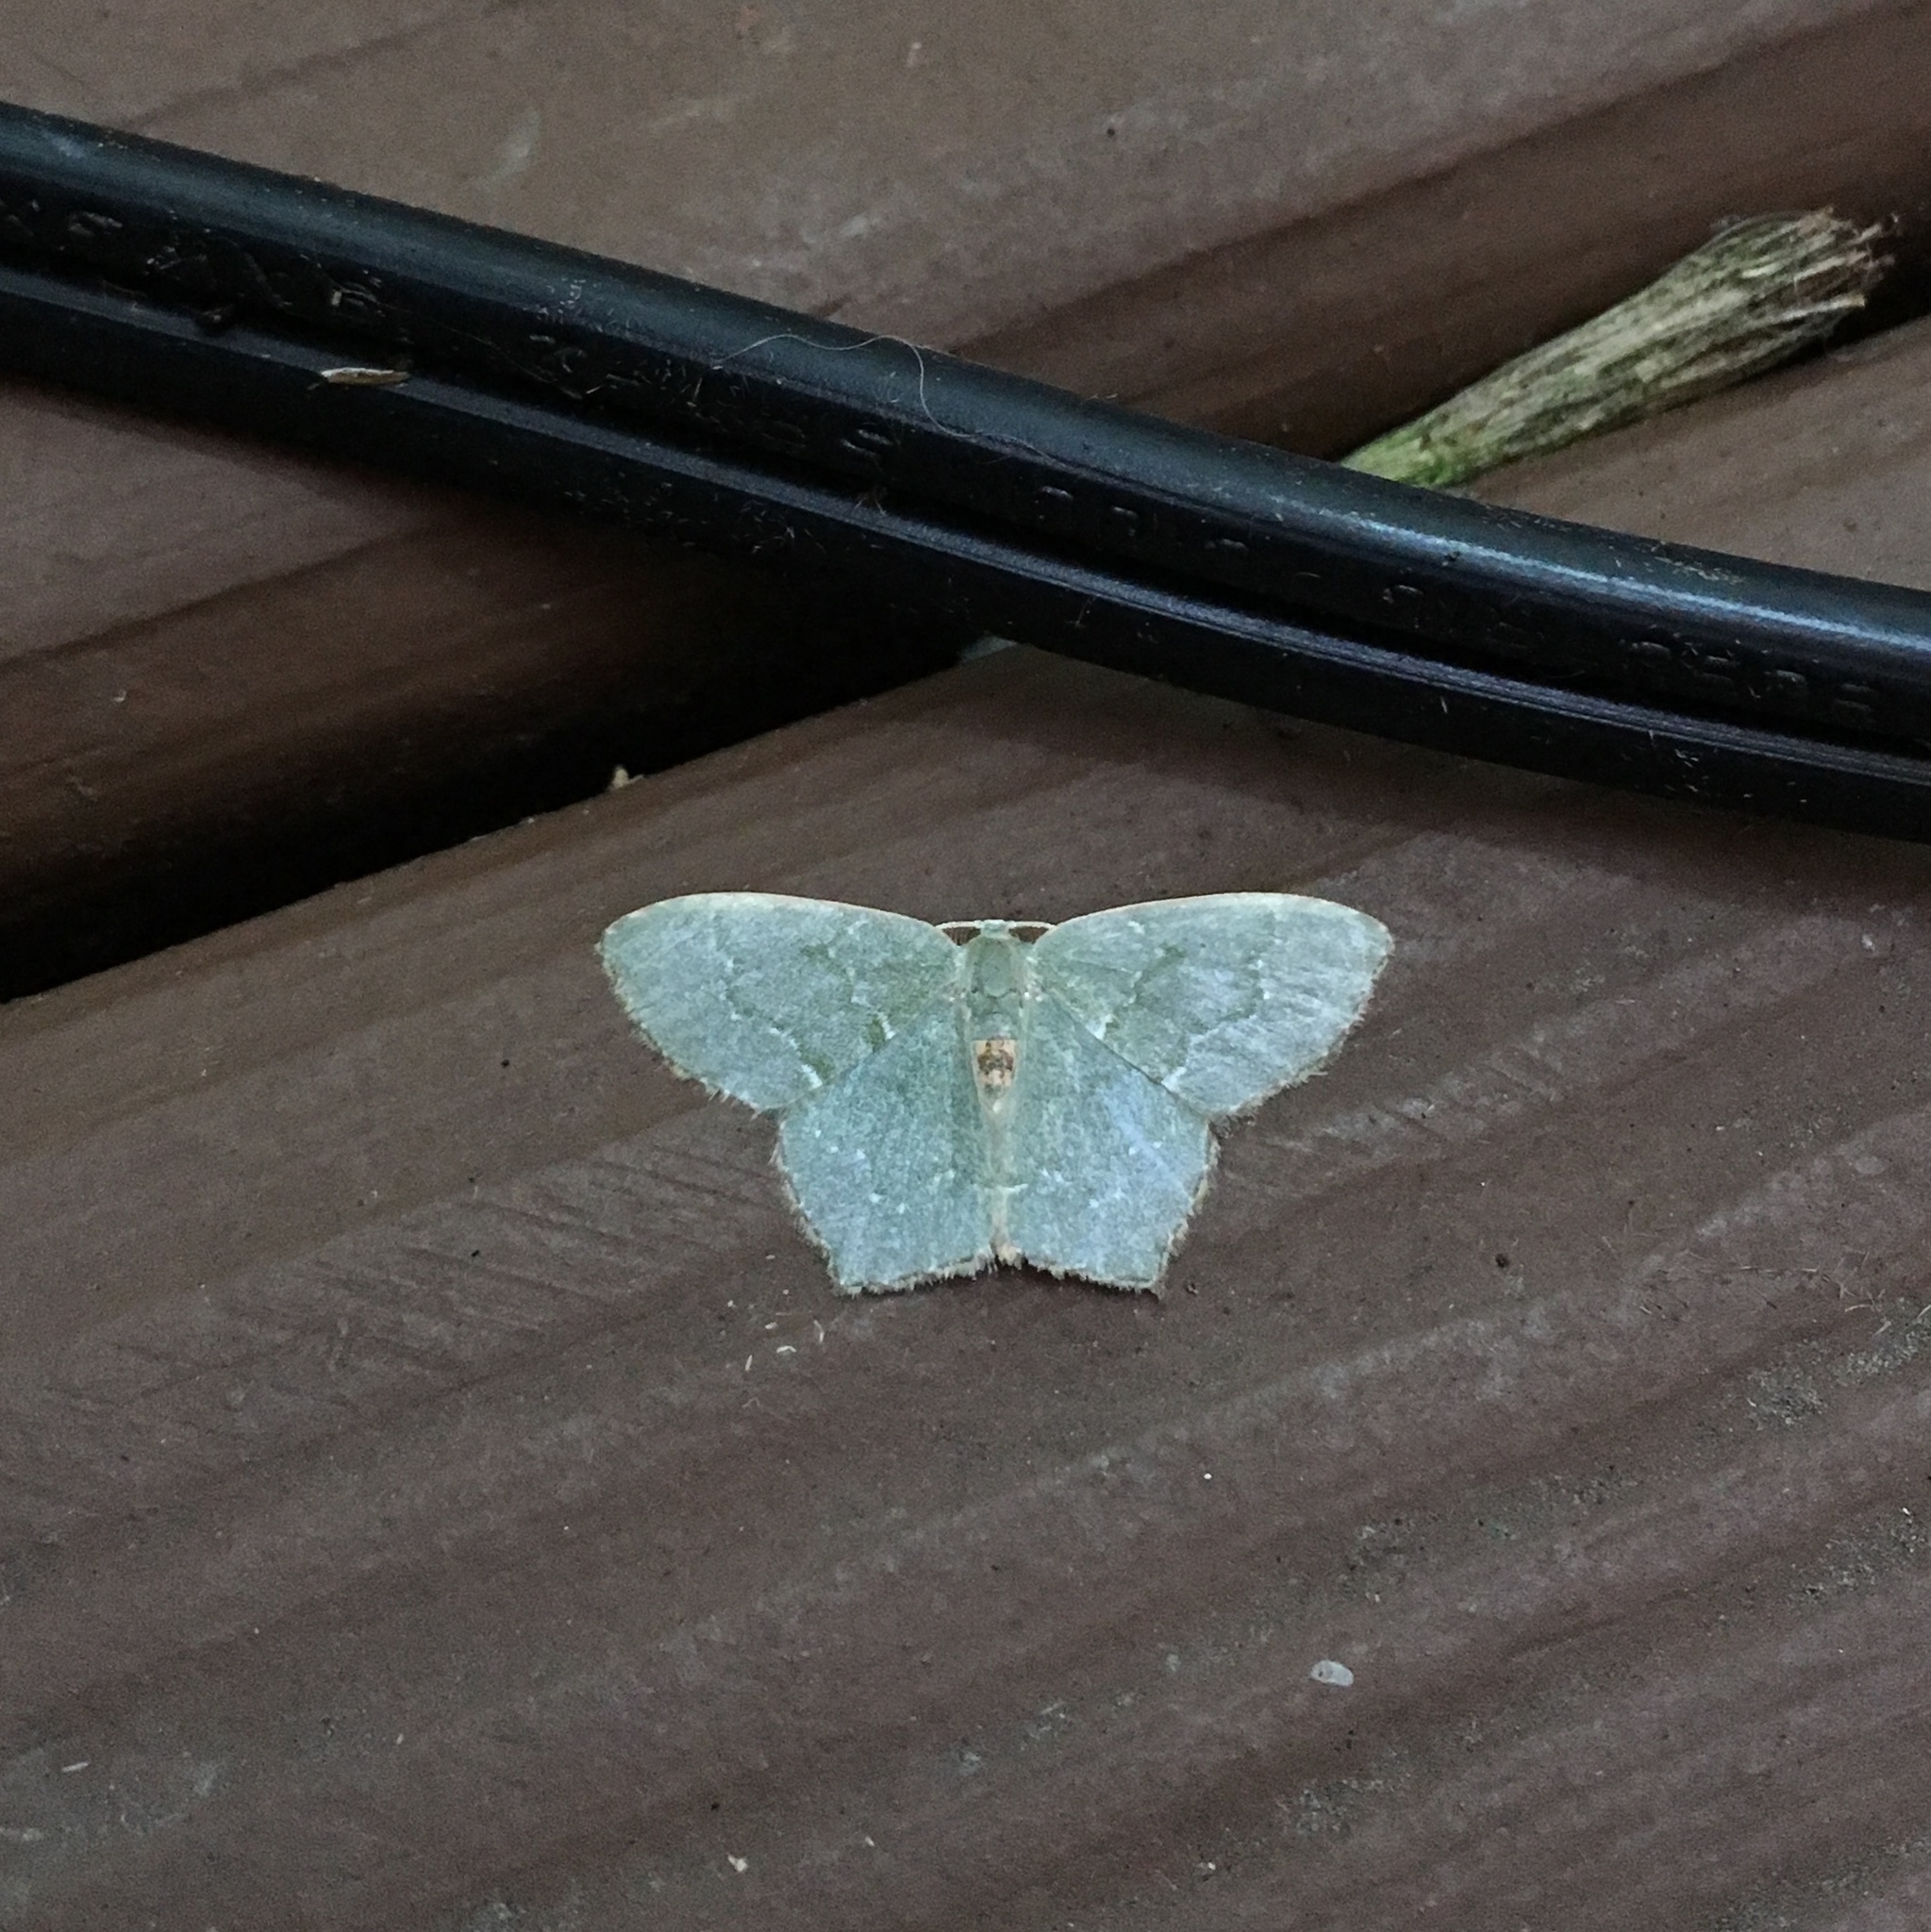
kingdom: Animalia
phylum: Arthropoda
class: Insecta
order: Lepidoptera
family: Geometridae
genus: Chloropteryx
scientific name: Chloropteryx tepperaria
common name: Angle winged emerald moth
